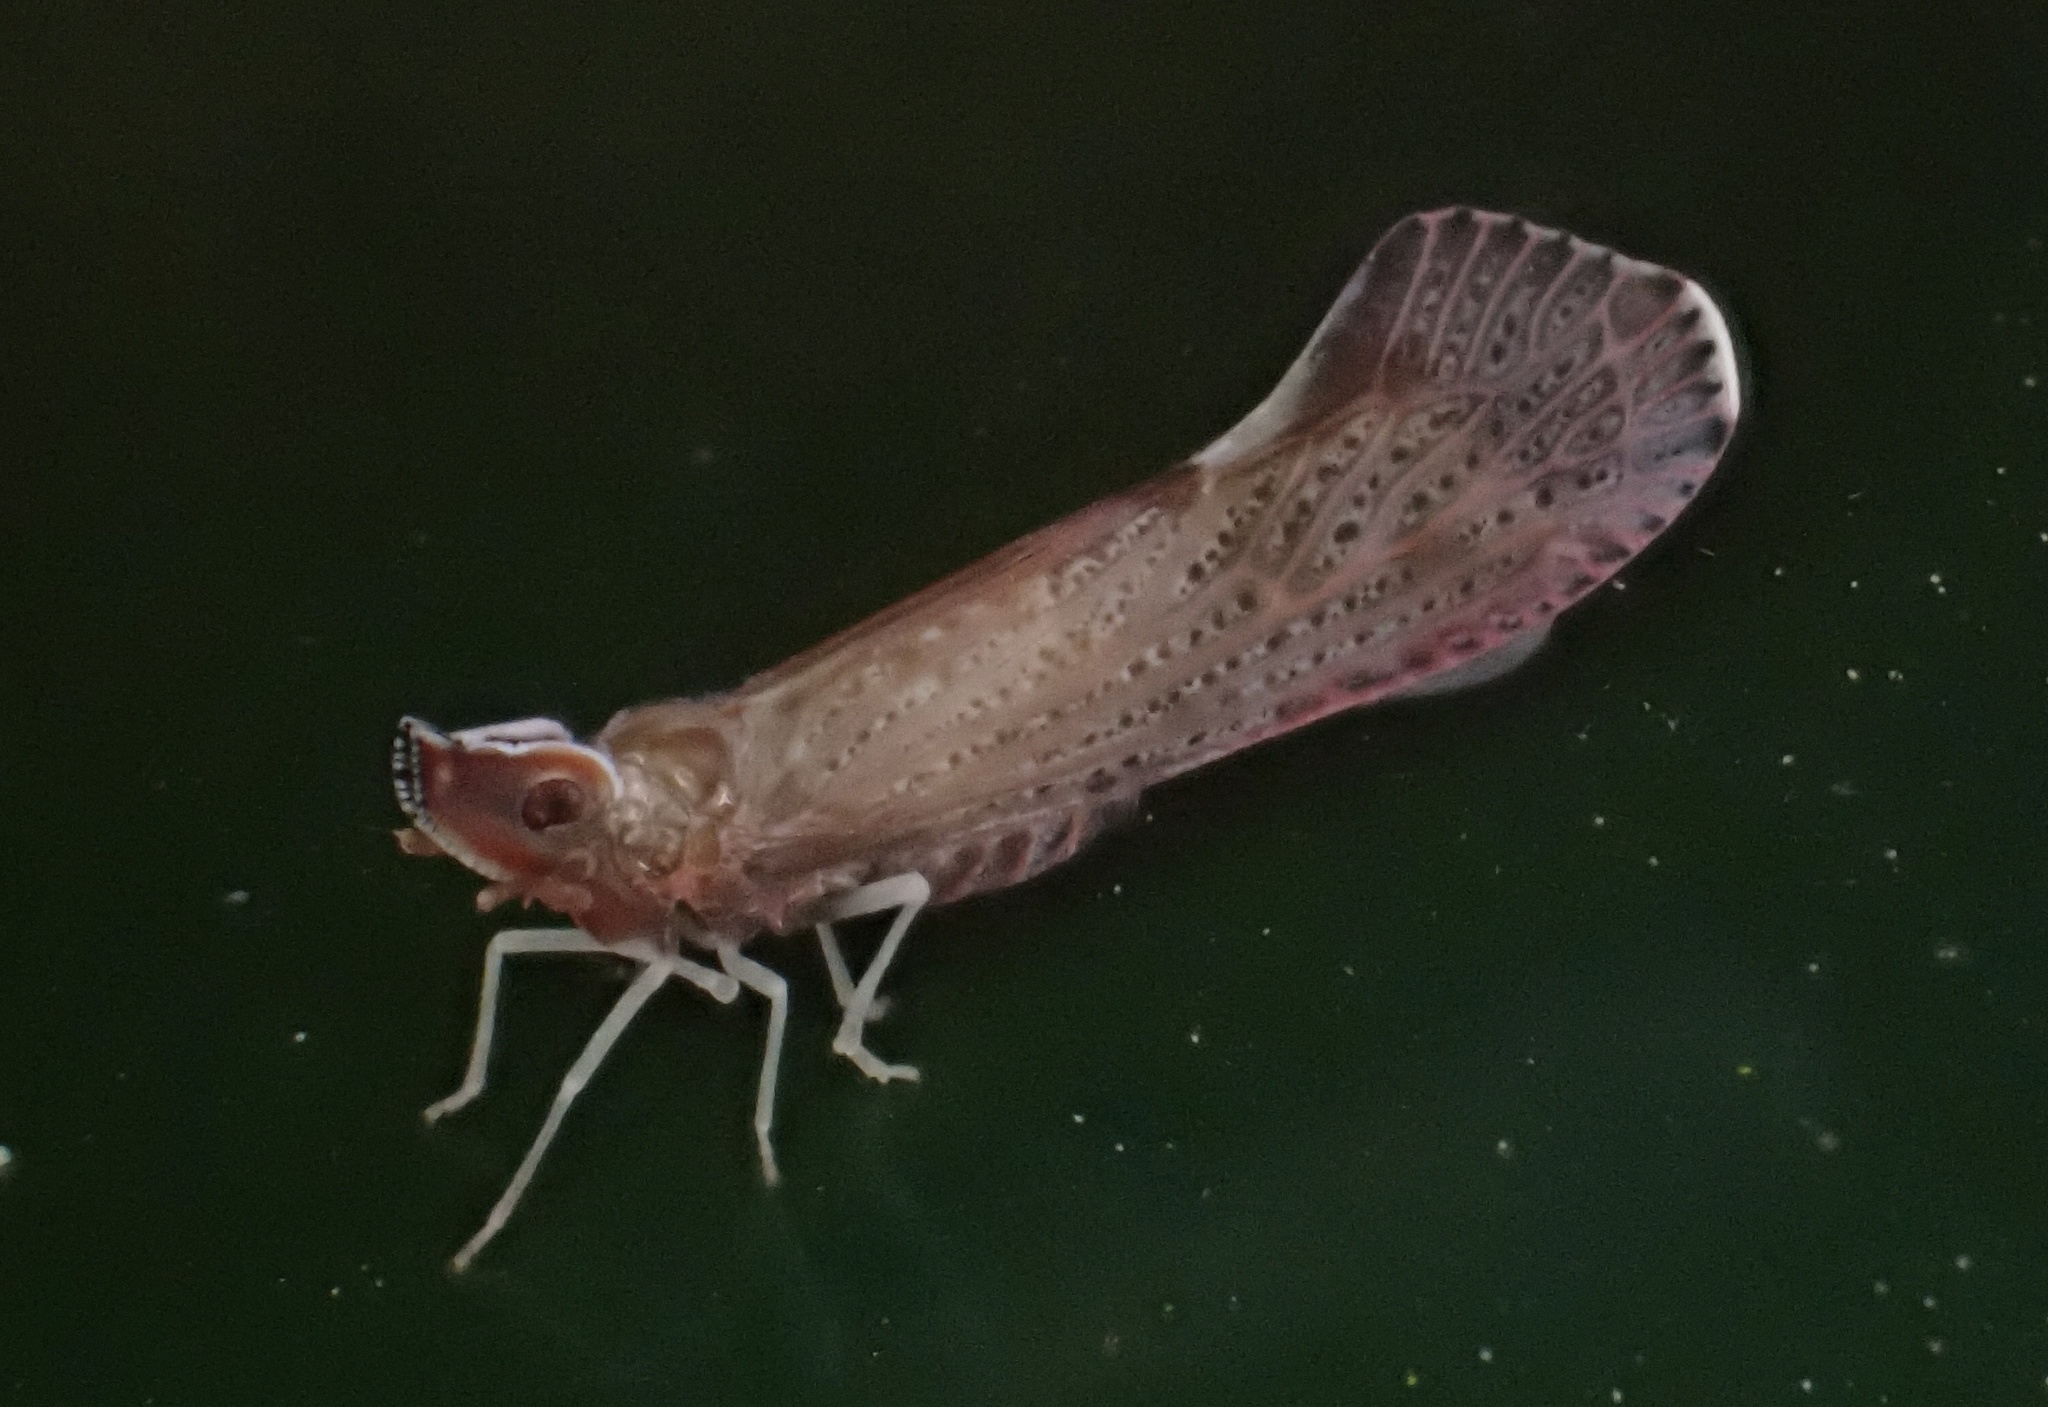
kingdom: Animalia
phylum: Arthropoda
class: Insecta
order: Hemiptera
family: Derbidae
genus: Apache
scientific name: Apache degeeri
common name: Red-fanned planthopper
